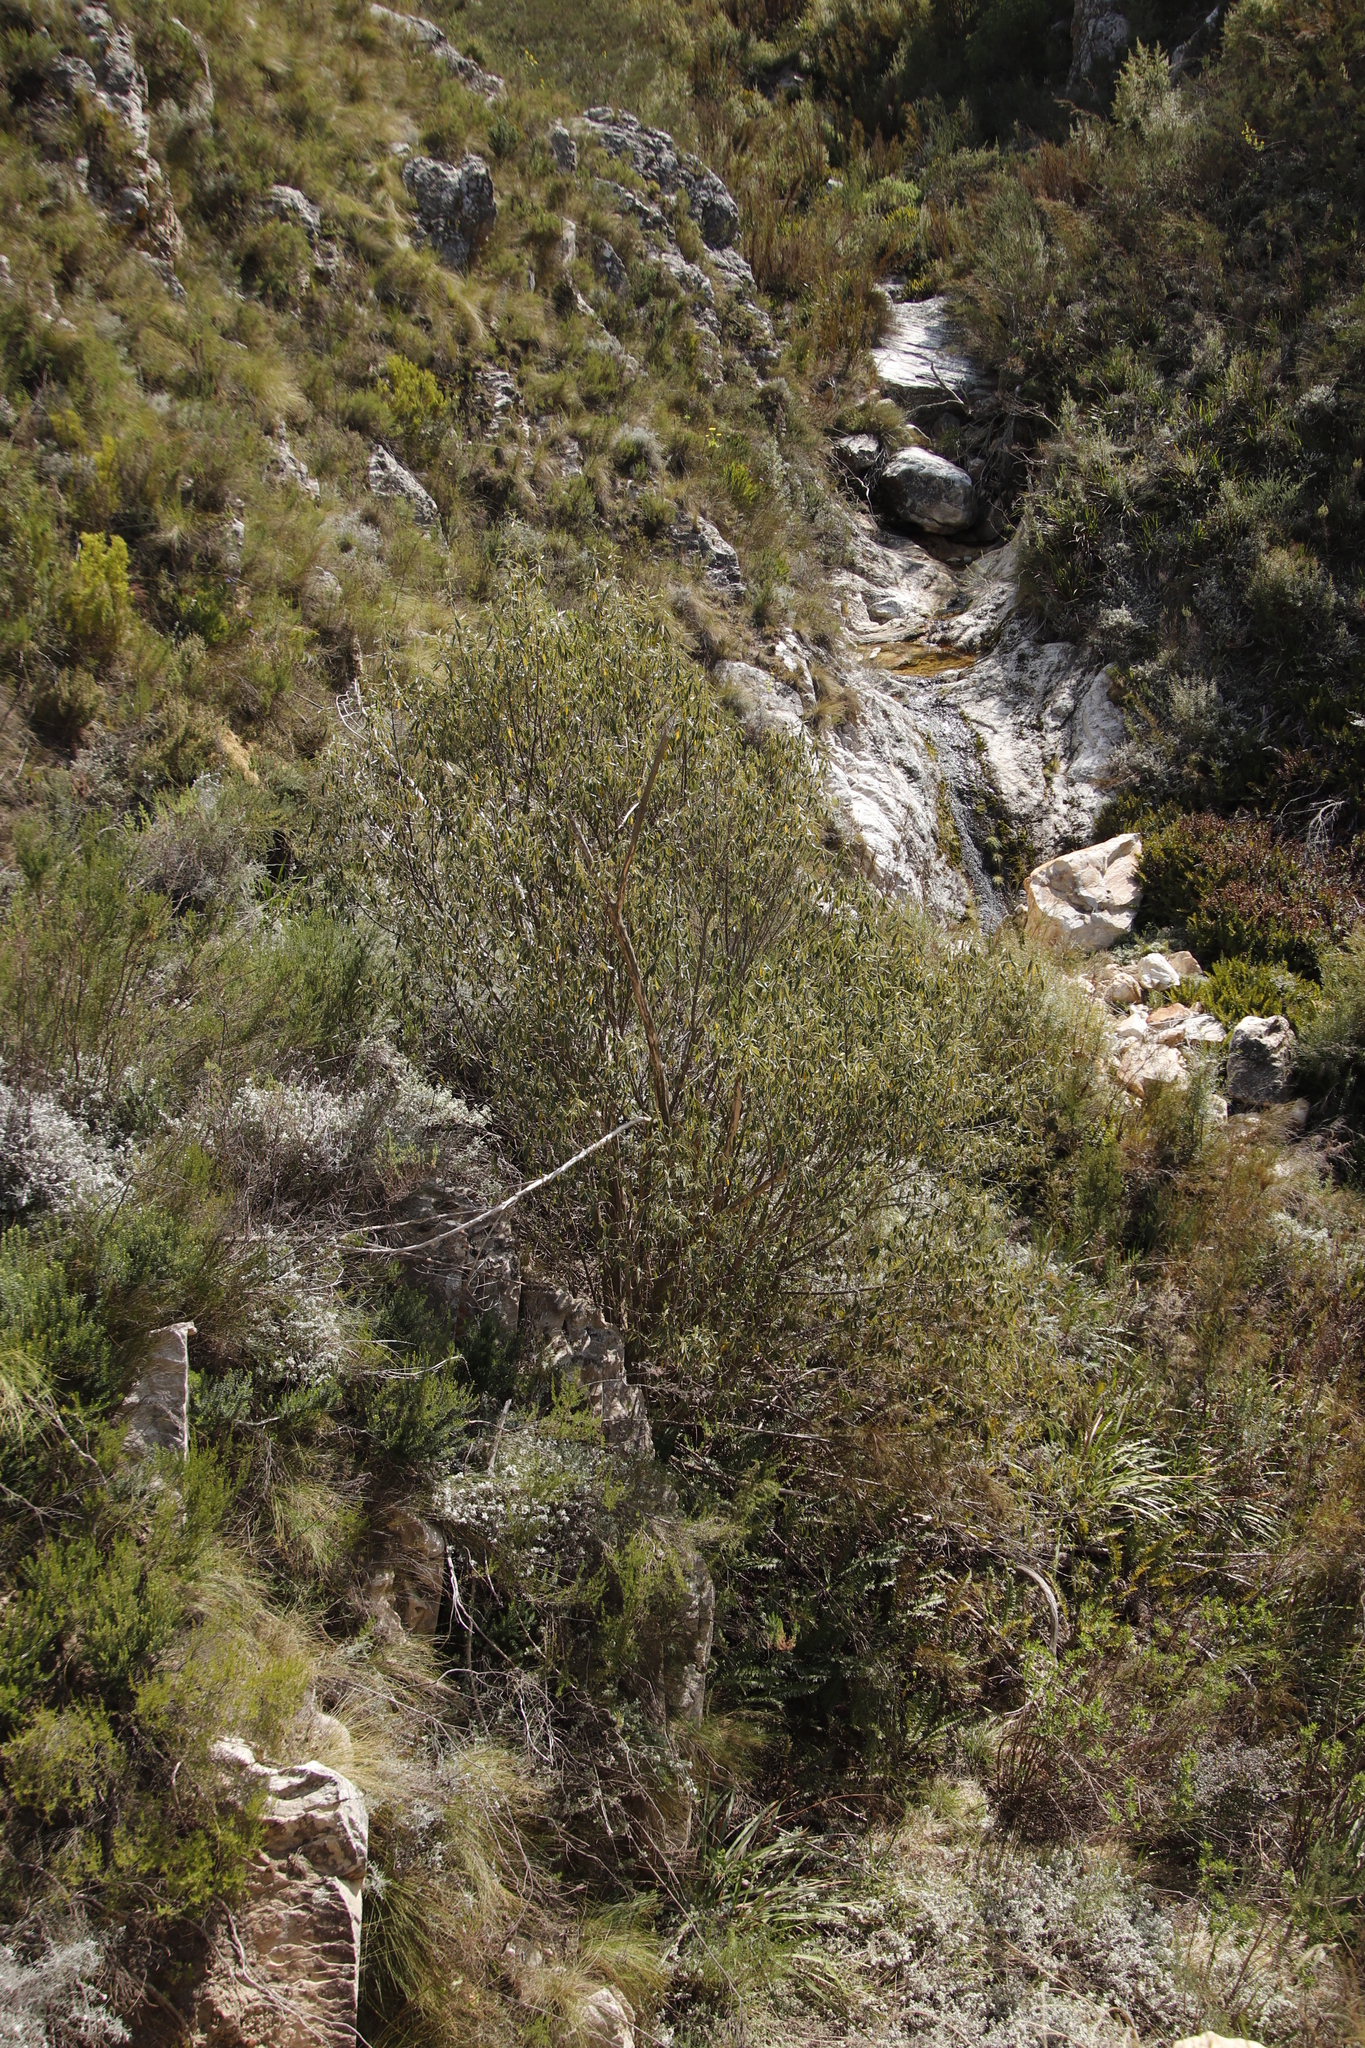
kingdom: Plantae
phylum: Tracheophyta
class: Magnoliopsida
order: Malpighiales
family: Achariaceae
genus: Kiggelaria
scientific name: Kiggelaria africana
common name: Wild peach
